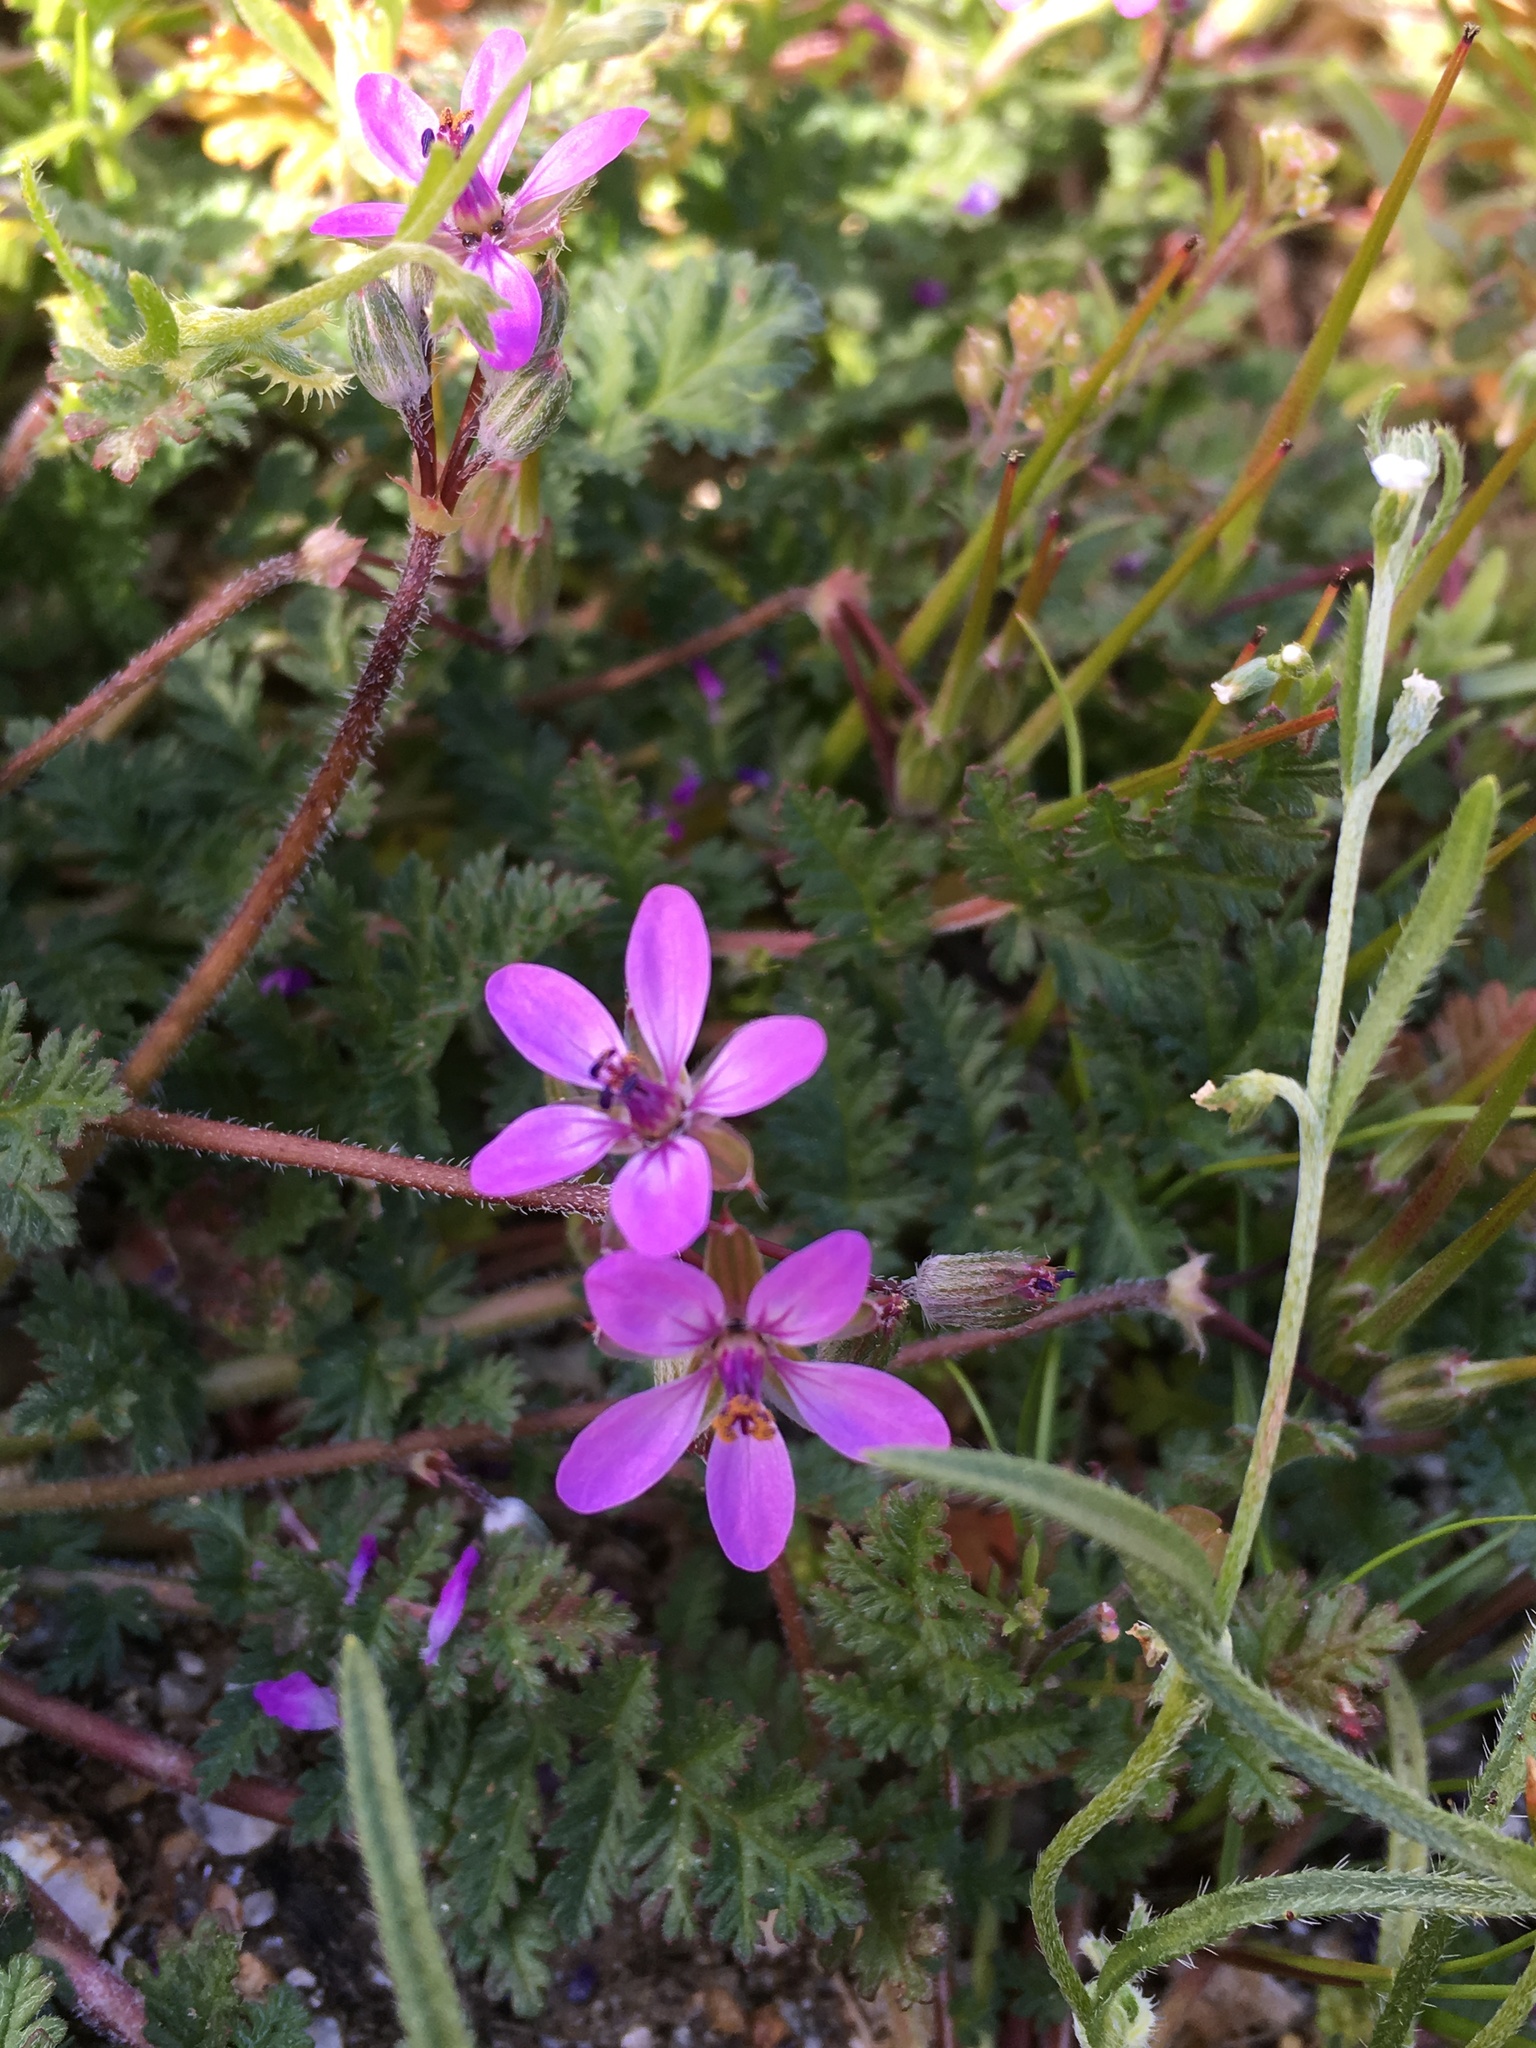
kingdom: Plantae
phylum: Tracheophyta
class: Magnoliopsida
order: Geraniales
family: Geraniaceae
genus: Erodium
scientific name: Erodium cicutarium
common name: Common stork's-bill
